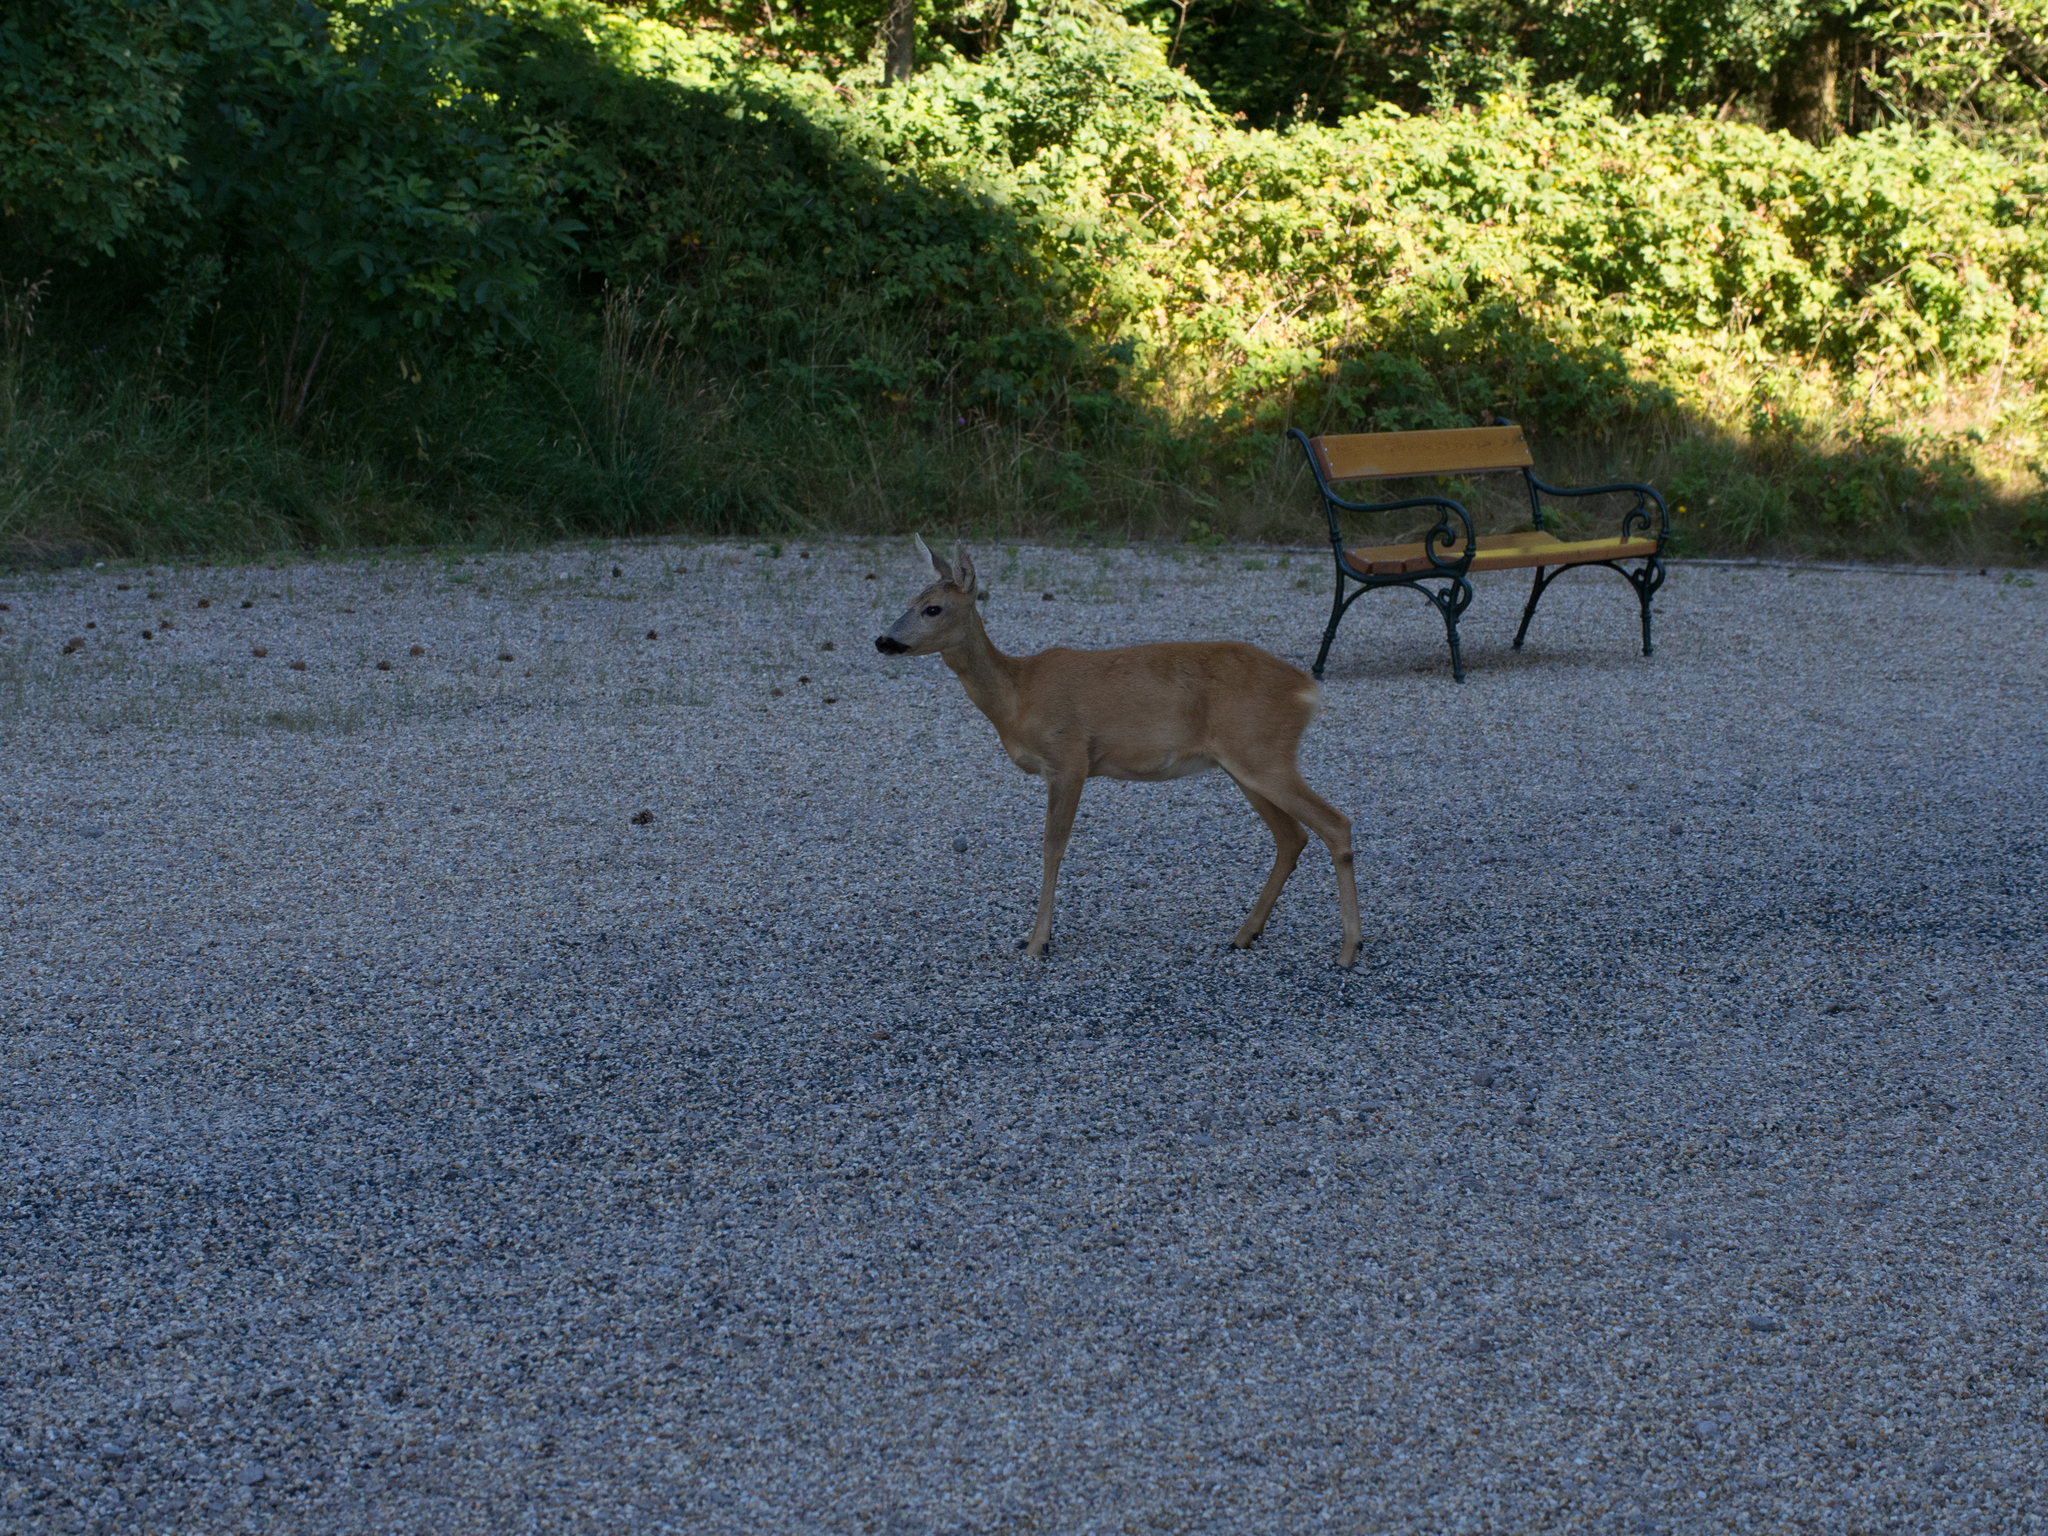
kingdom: Animalia
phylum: Chordata
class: Mammalia
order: Artiodactyla
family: Cervidae
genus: Capreolus
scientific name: Capreolus capreolus
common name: Western roe deer
